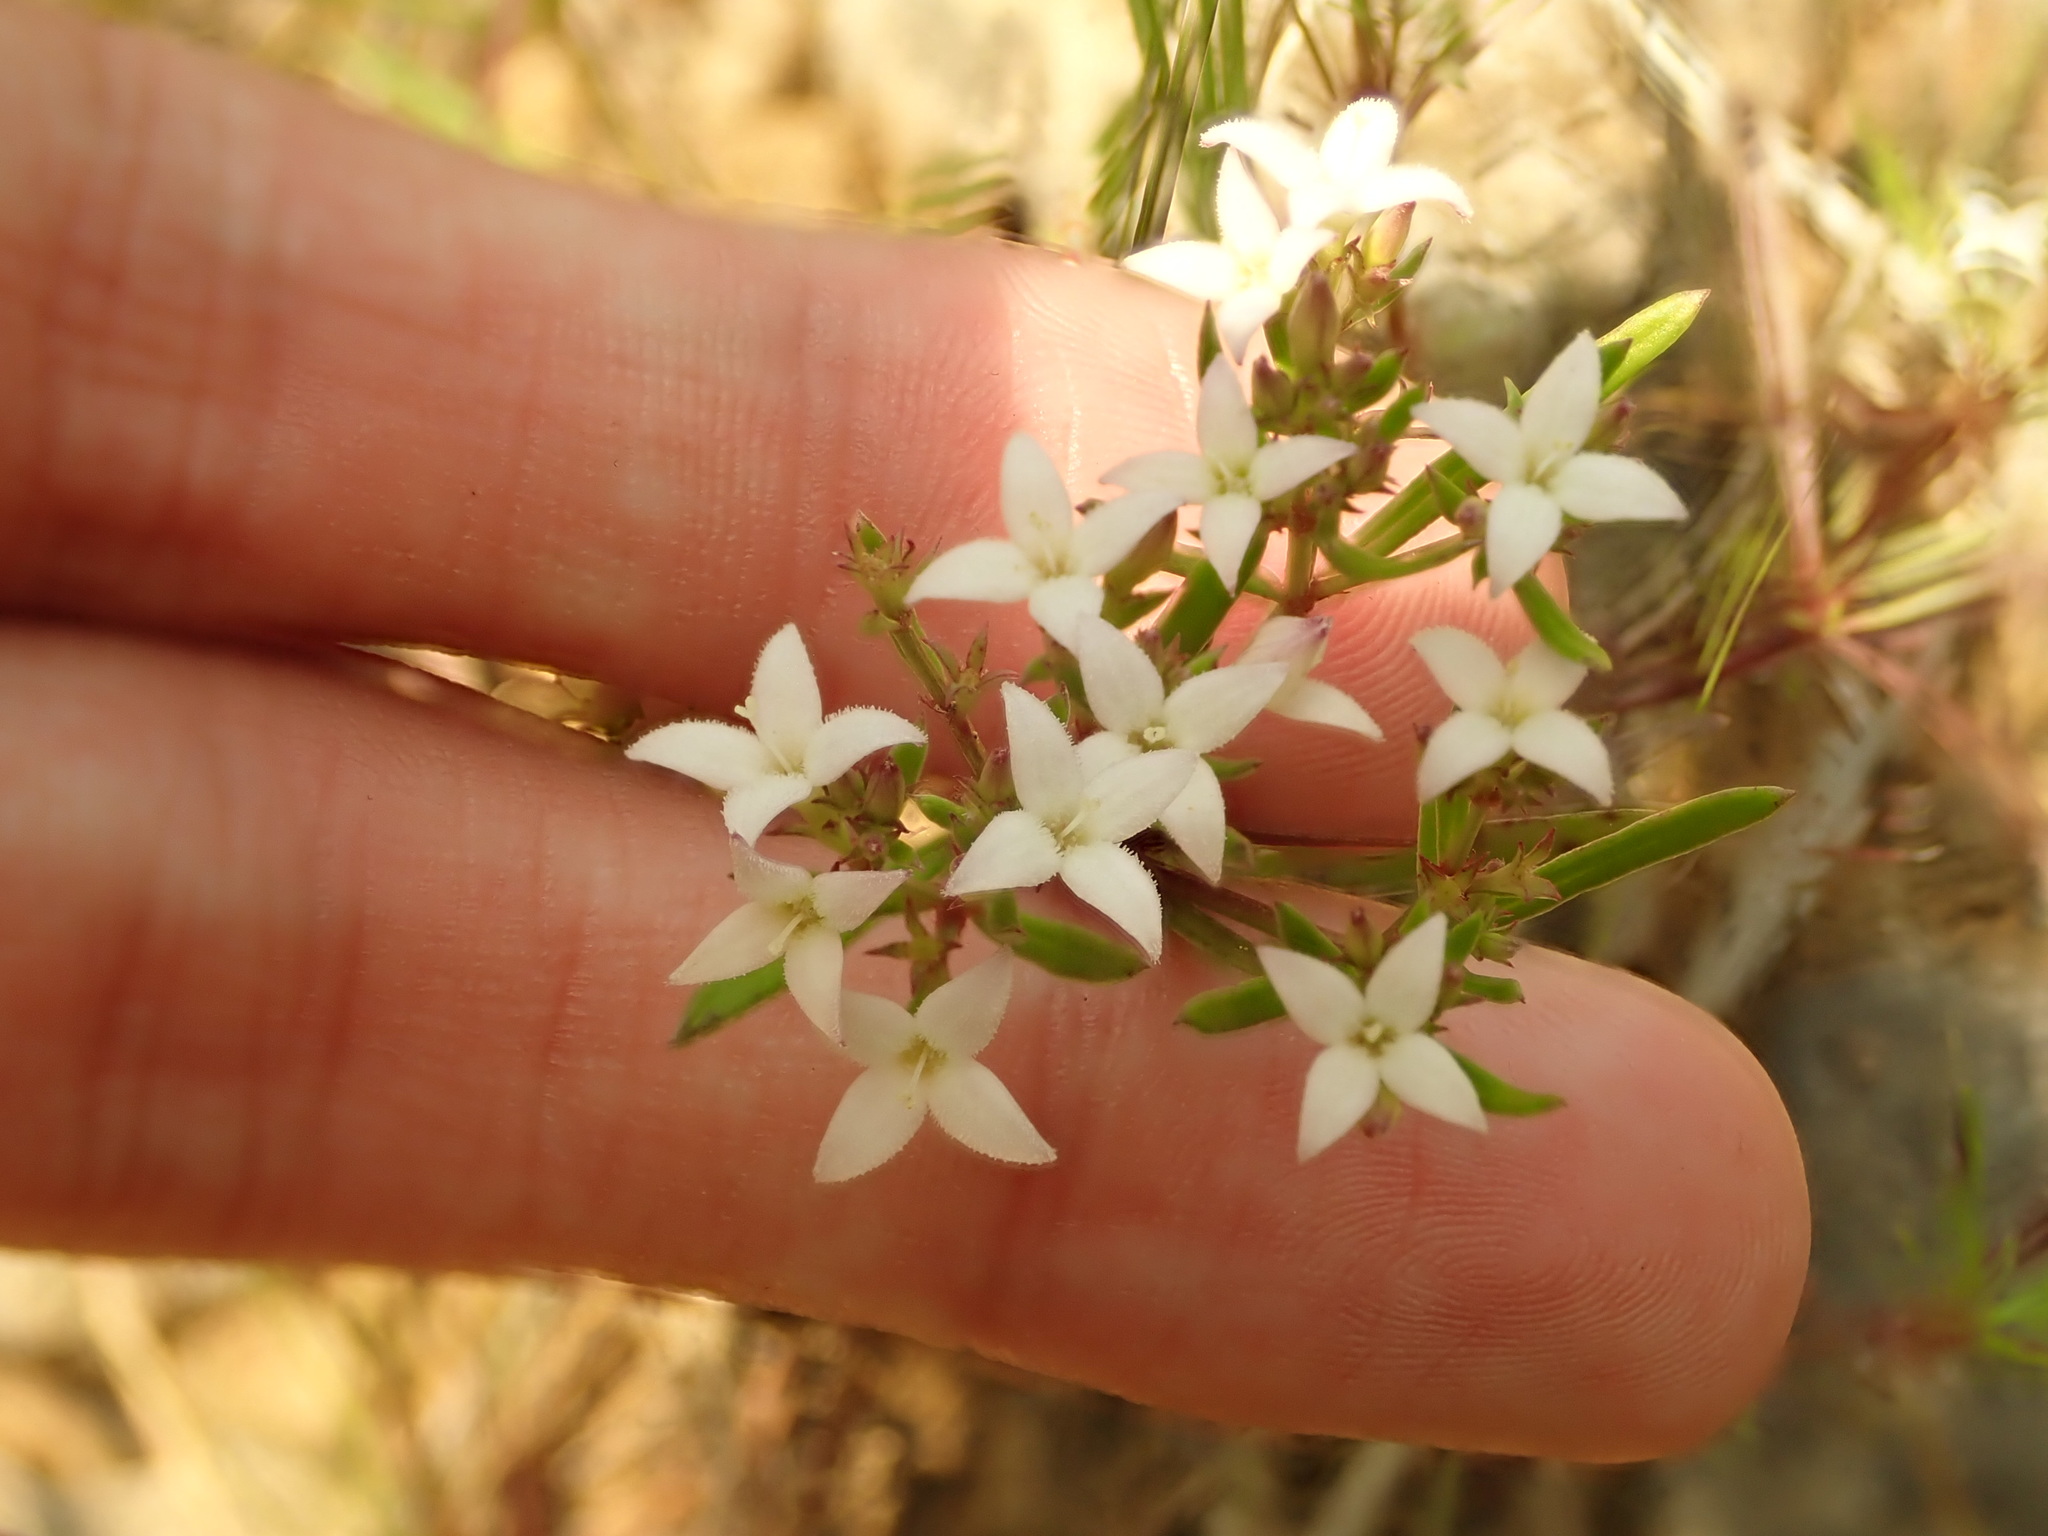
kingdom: Plantae
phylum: Tracheophyta
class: Magnoliopsida
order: Gentianales
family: Rubiaceae
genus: Stenaria
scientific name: Stenaria nigricans
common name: Diamondflowers
